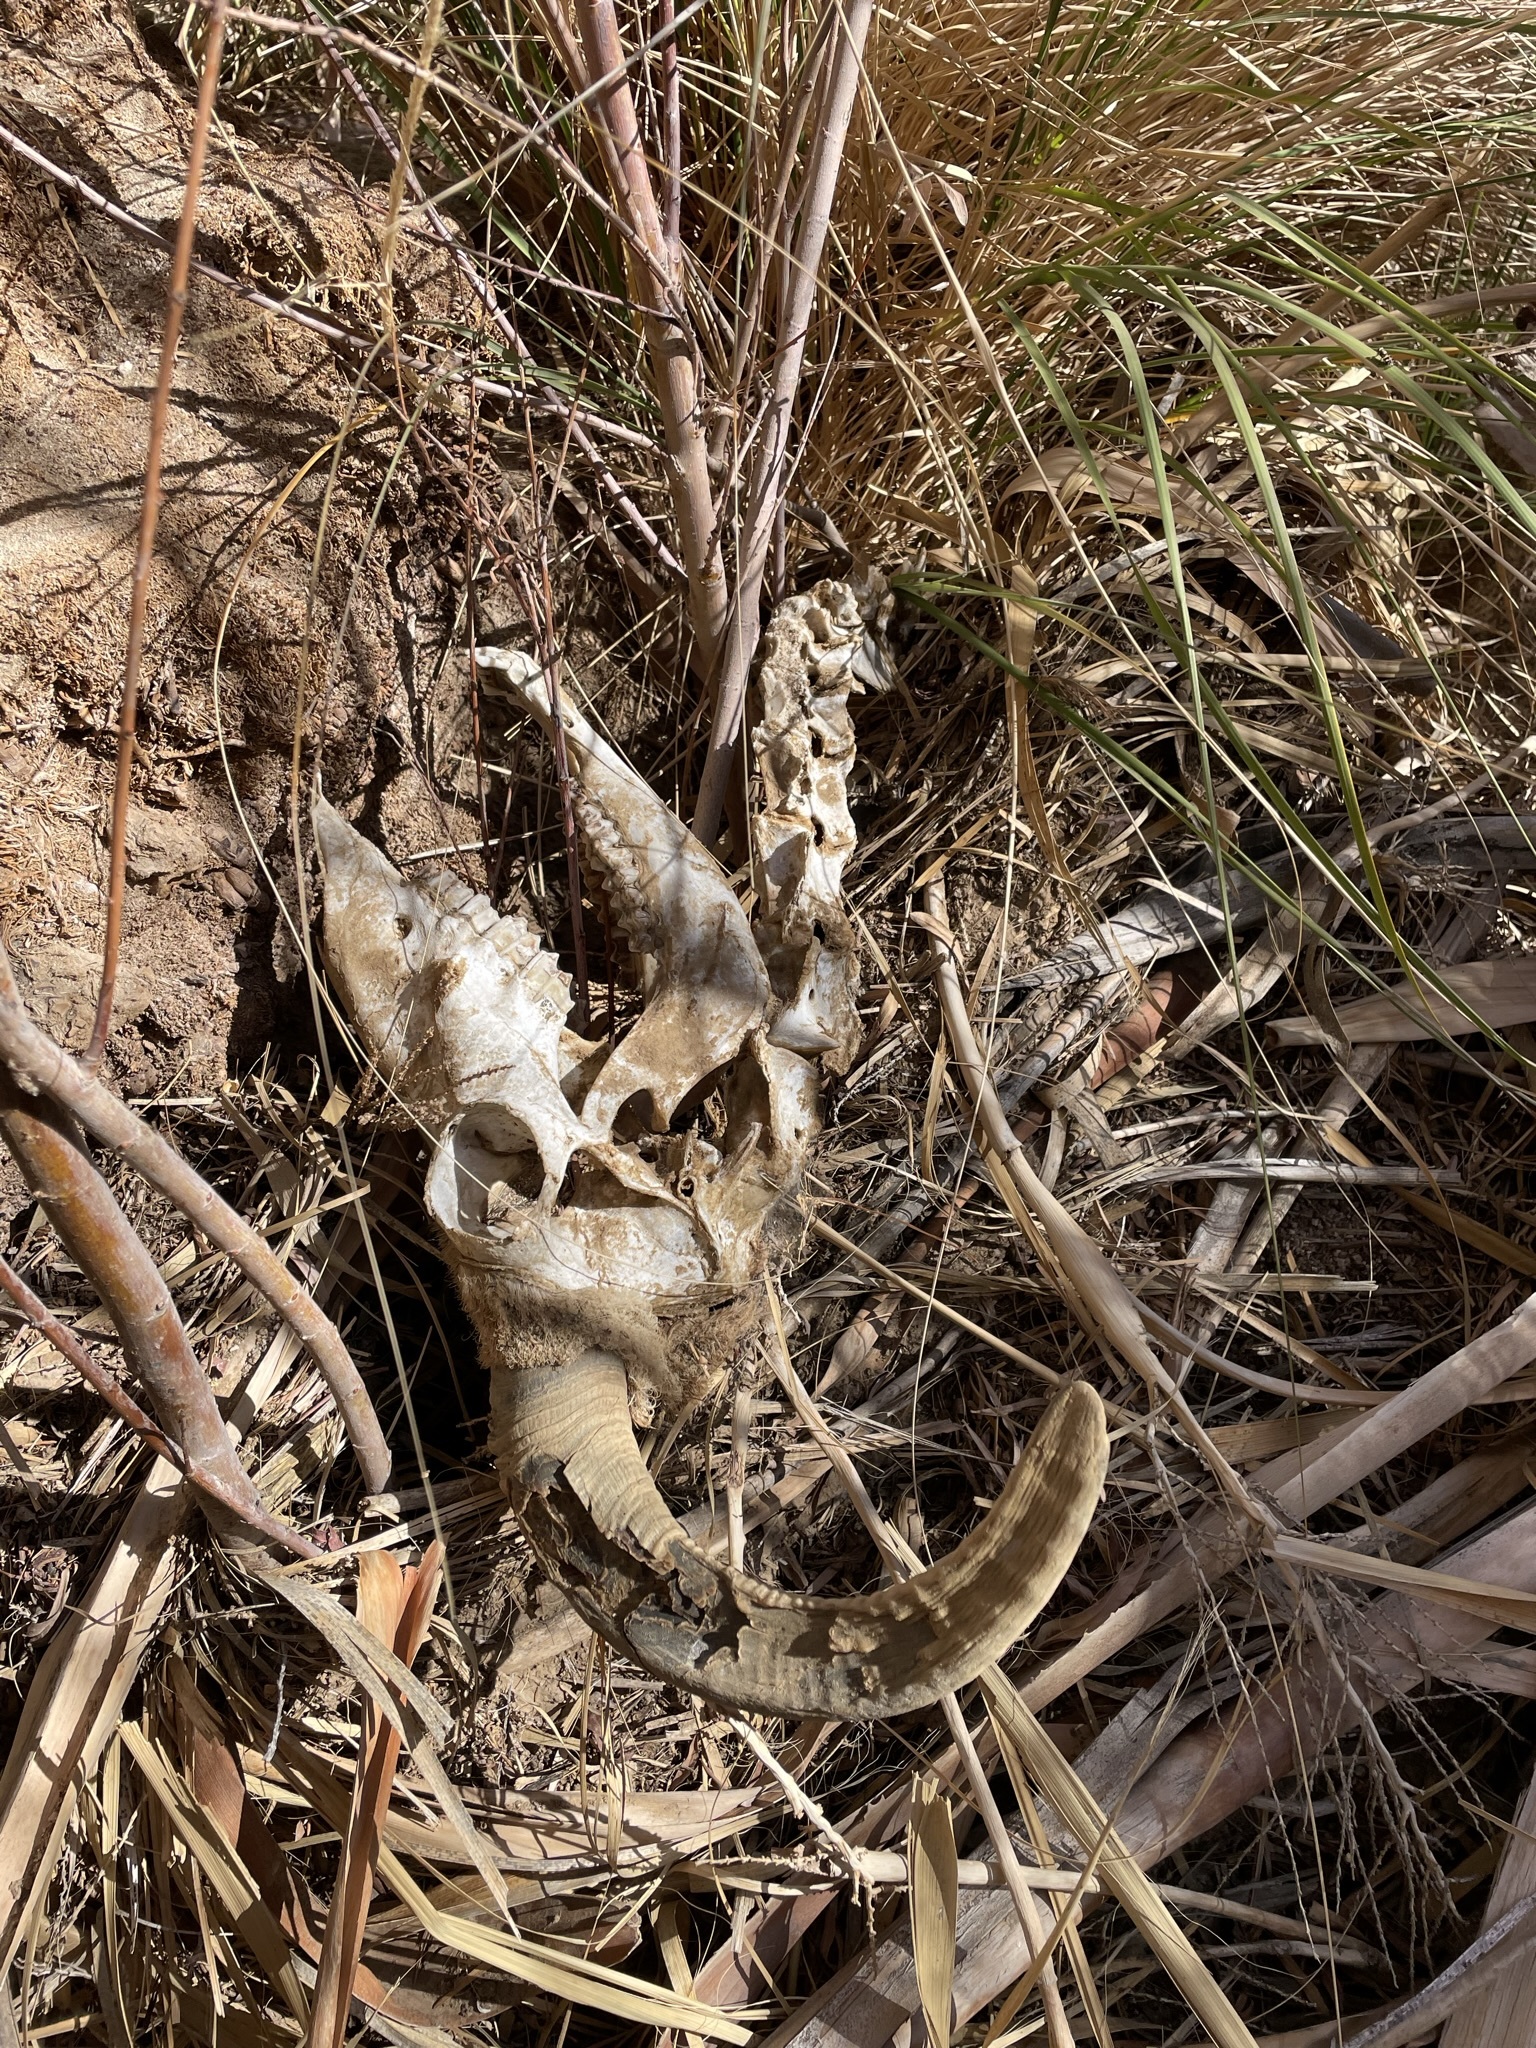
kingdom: Animalia
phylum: Chordata
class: Mammalia
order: Artiodactyla
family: Bovidae
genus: Ovis
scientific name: Ovis canadensis
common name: Bighorn sheep
